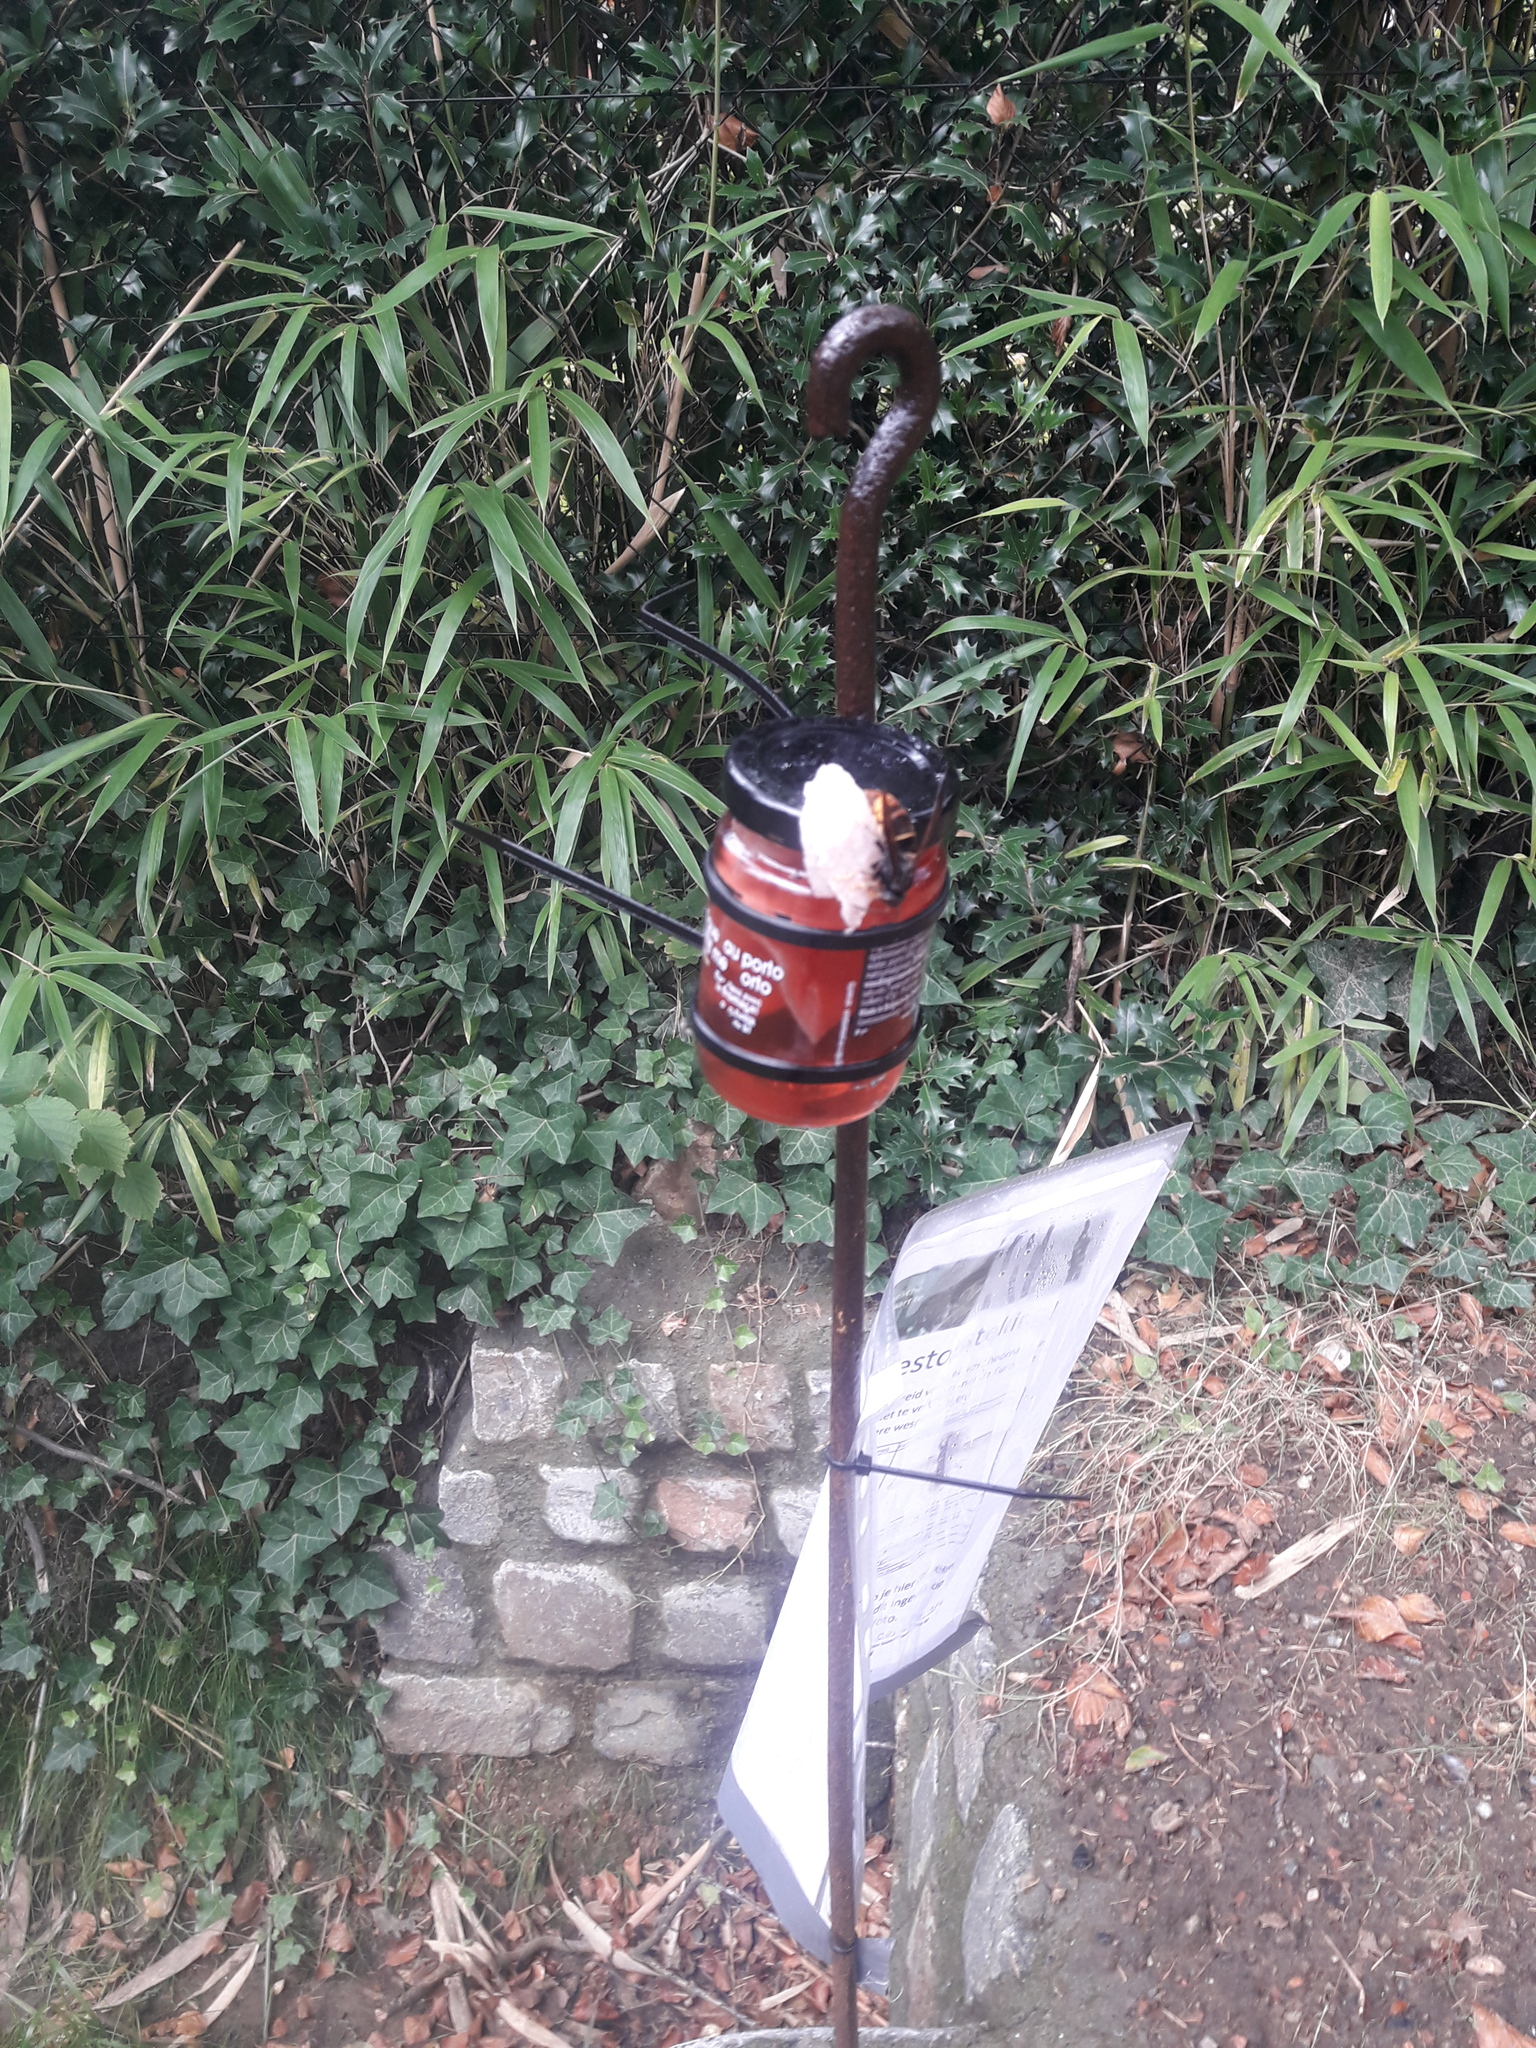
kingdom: Animalia
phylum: Arthropoda
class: Insecta
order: Hymenoptera
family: Vespidae
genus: Vespa
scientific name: Vespa velutina
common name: Asian hornet
